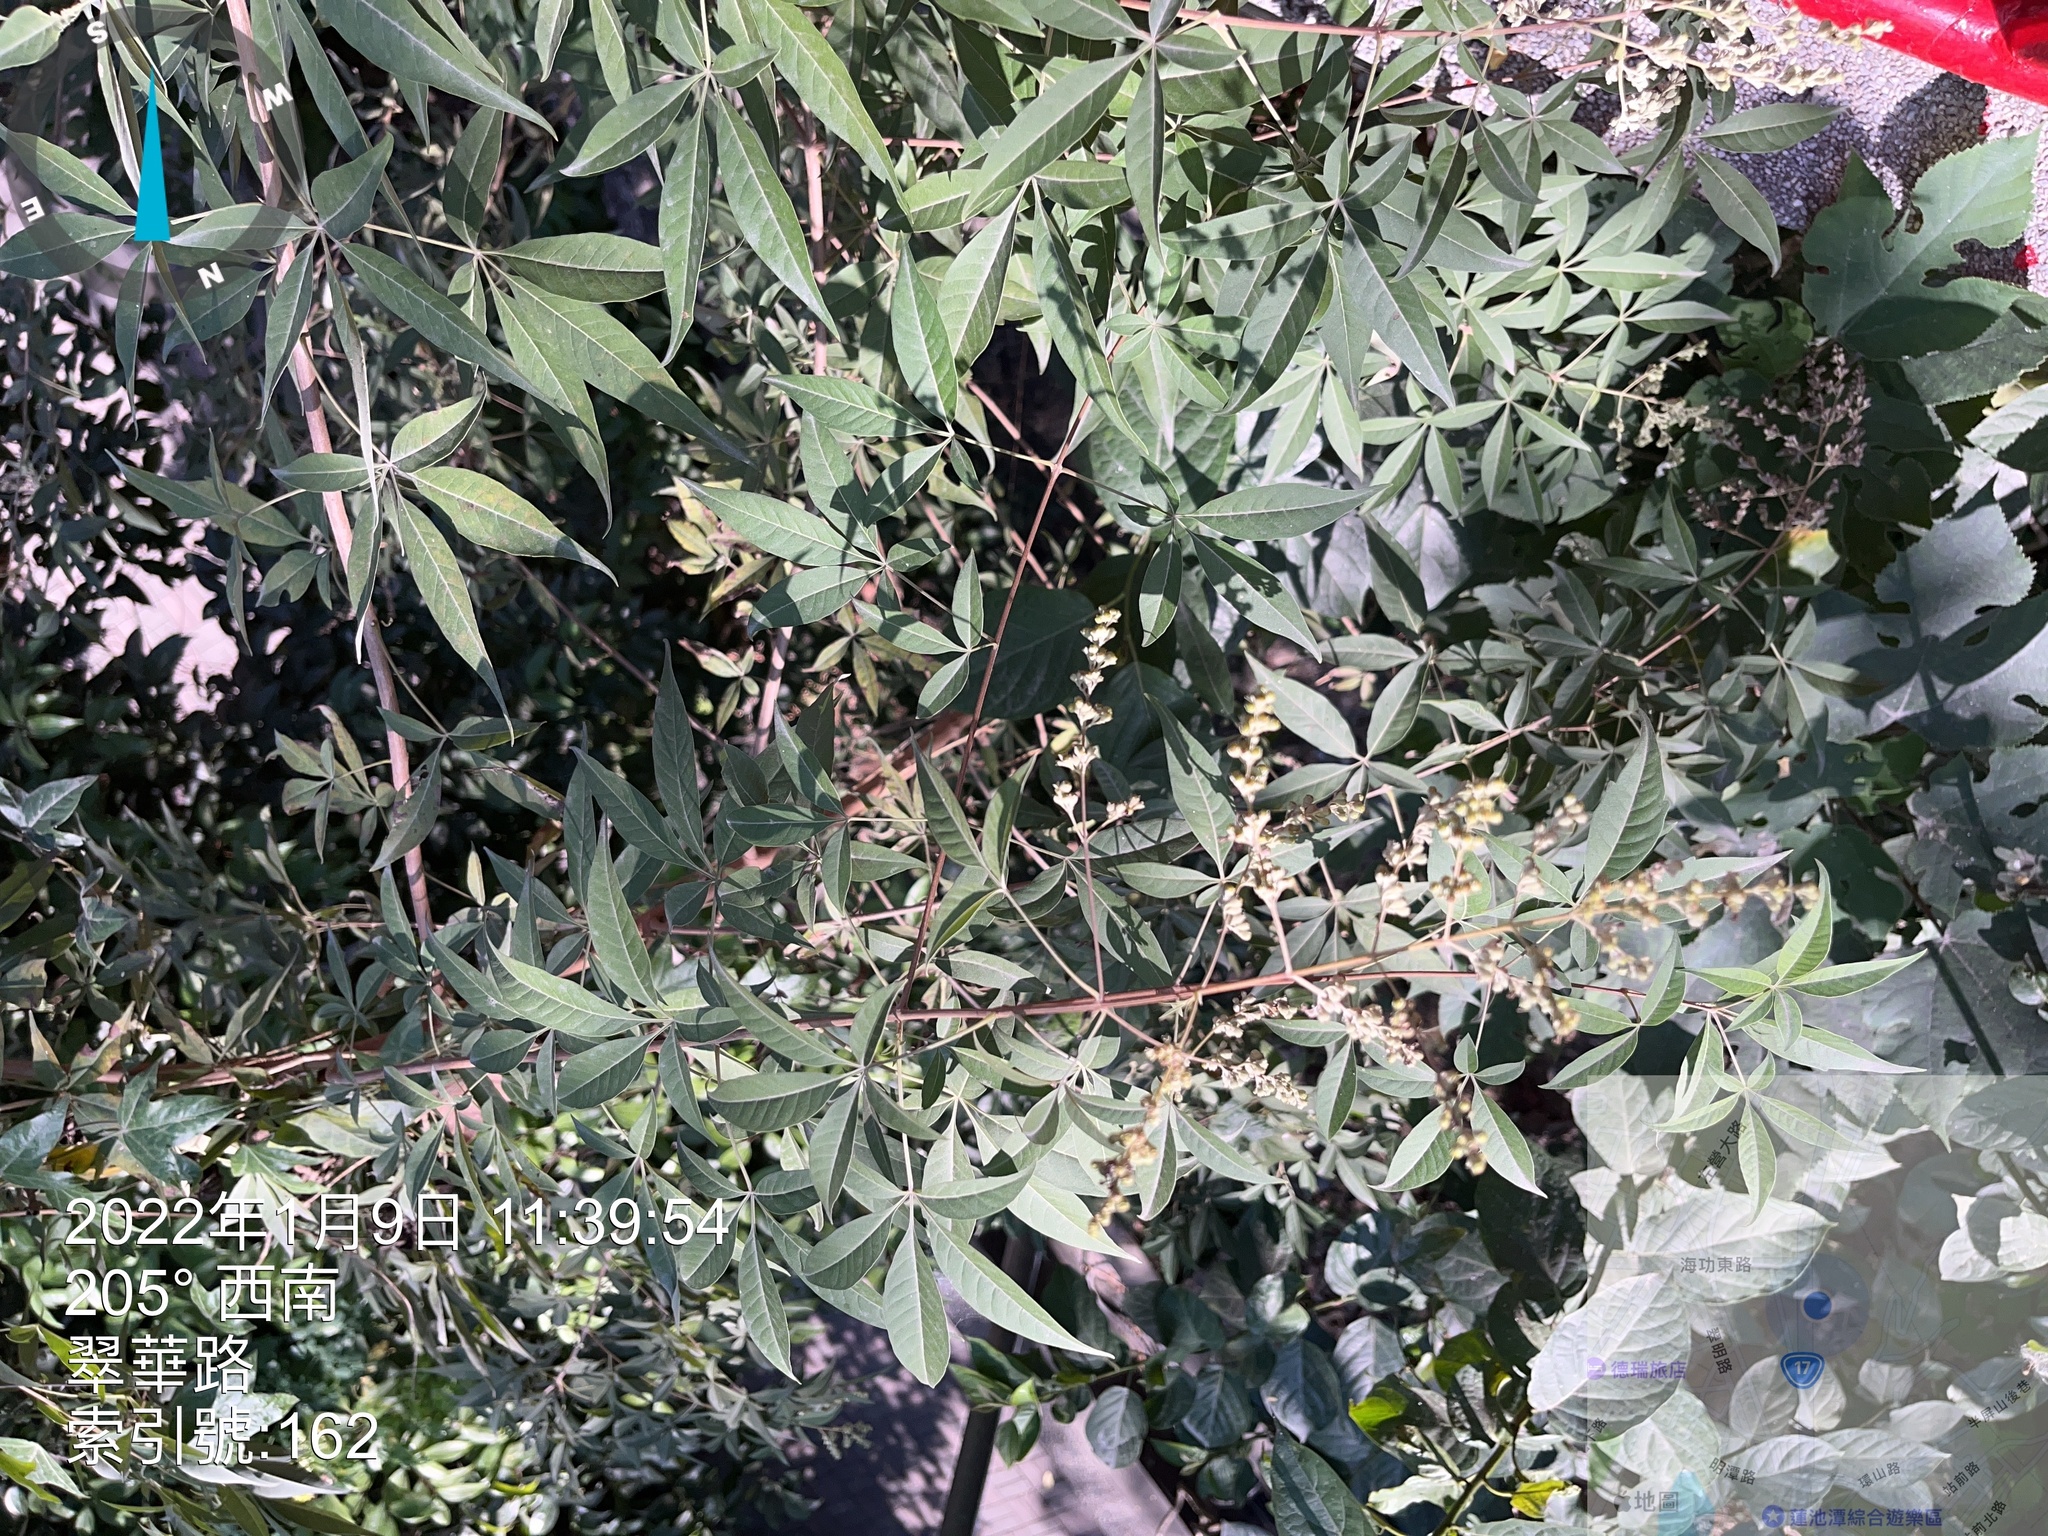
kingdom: Plantae
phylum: Tracheophyta
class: Magnoliopsida
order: Lamiales
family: Lamiaceae
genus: Vitex
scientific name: Vitex negundo
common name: Chinese chastetree
